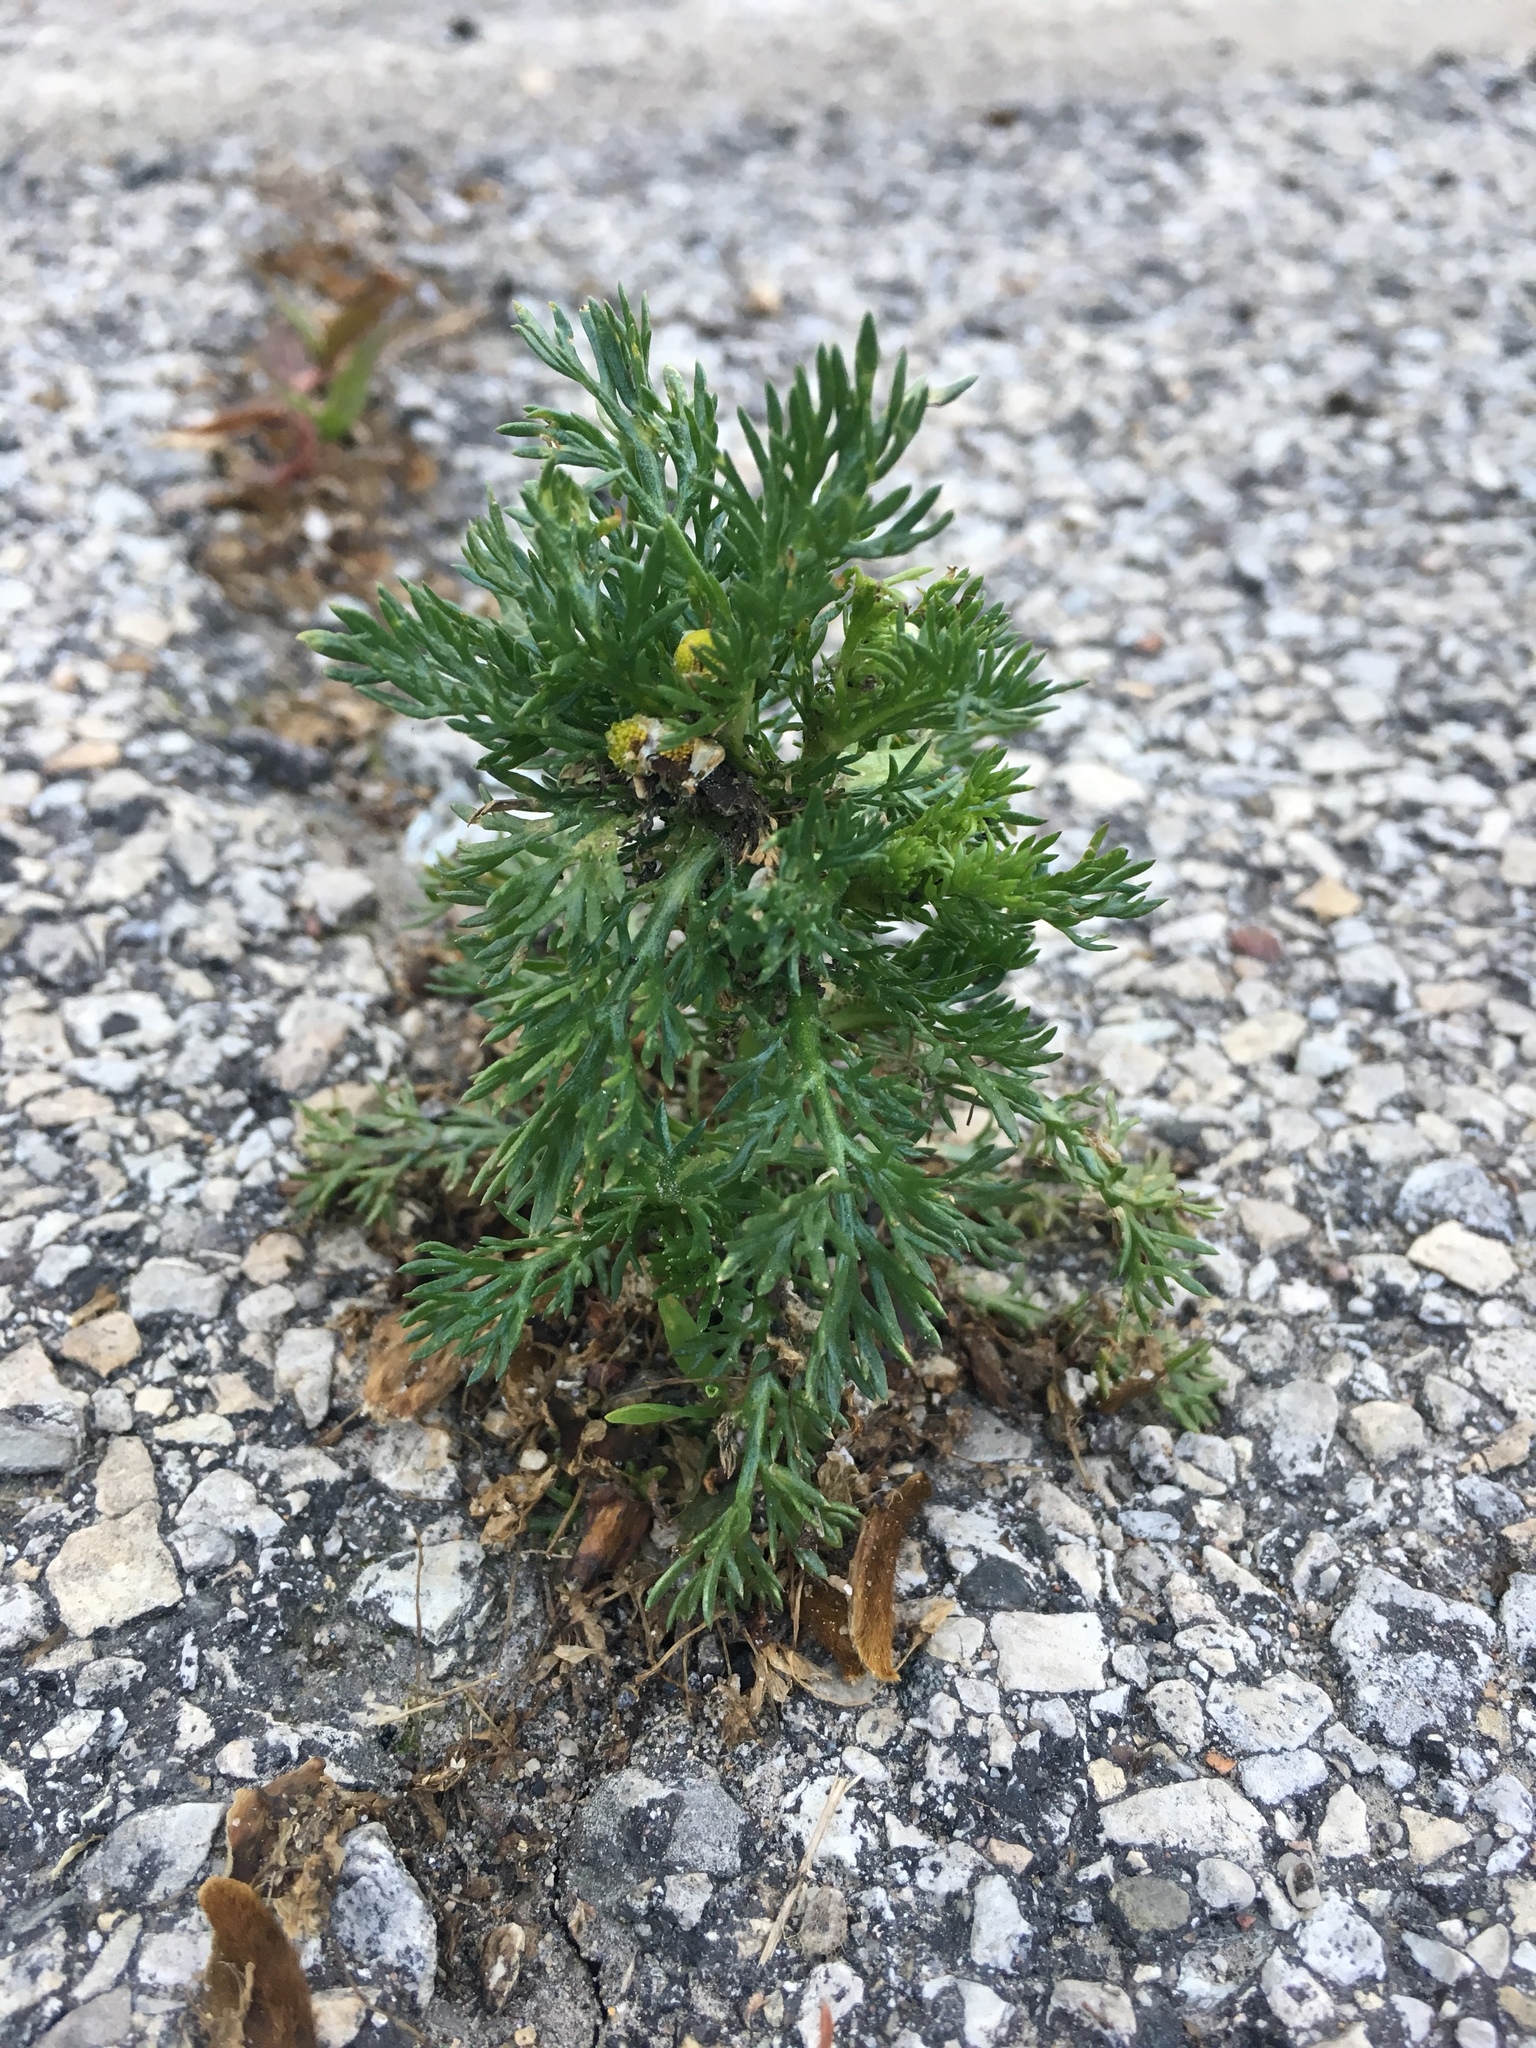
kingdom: Plantae
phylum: Tracheophyta
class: Magnoliopsida
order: Asterales
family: Asteraceae
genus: Matricaria
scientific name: Matricaria discoidea
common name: Disc mayweed
